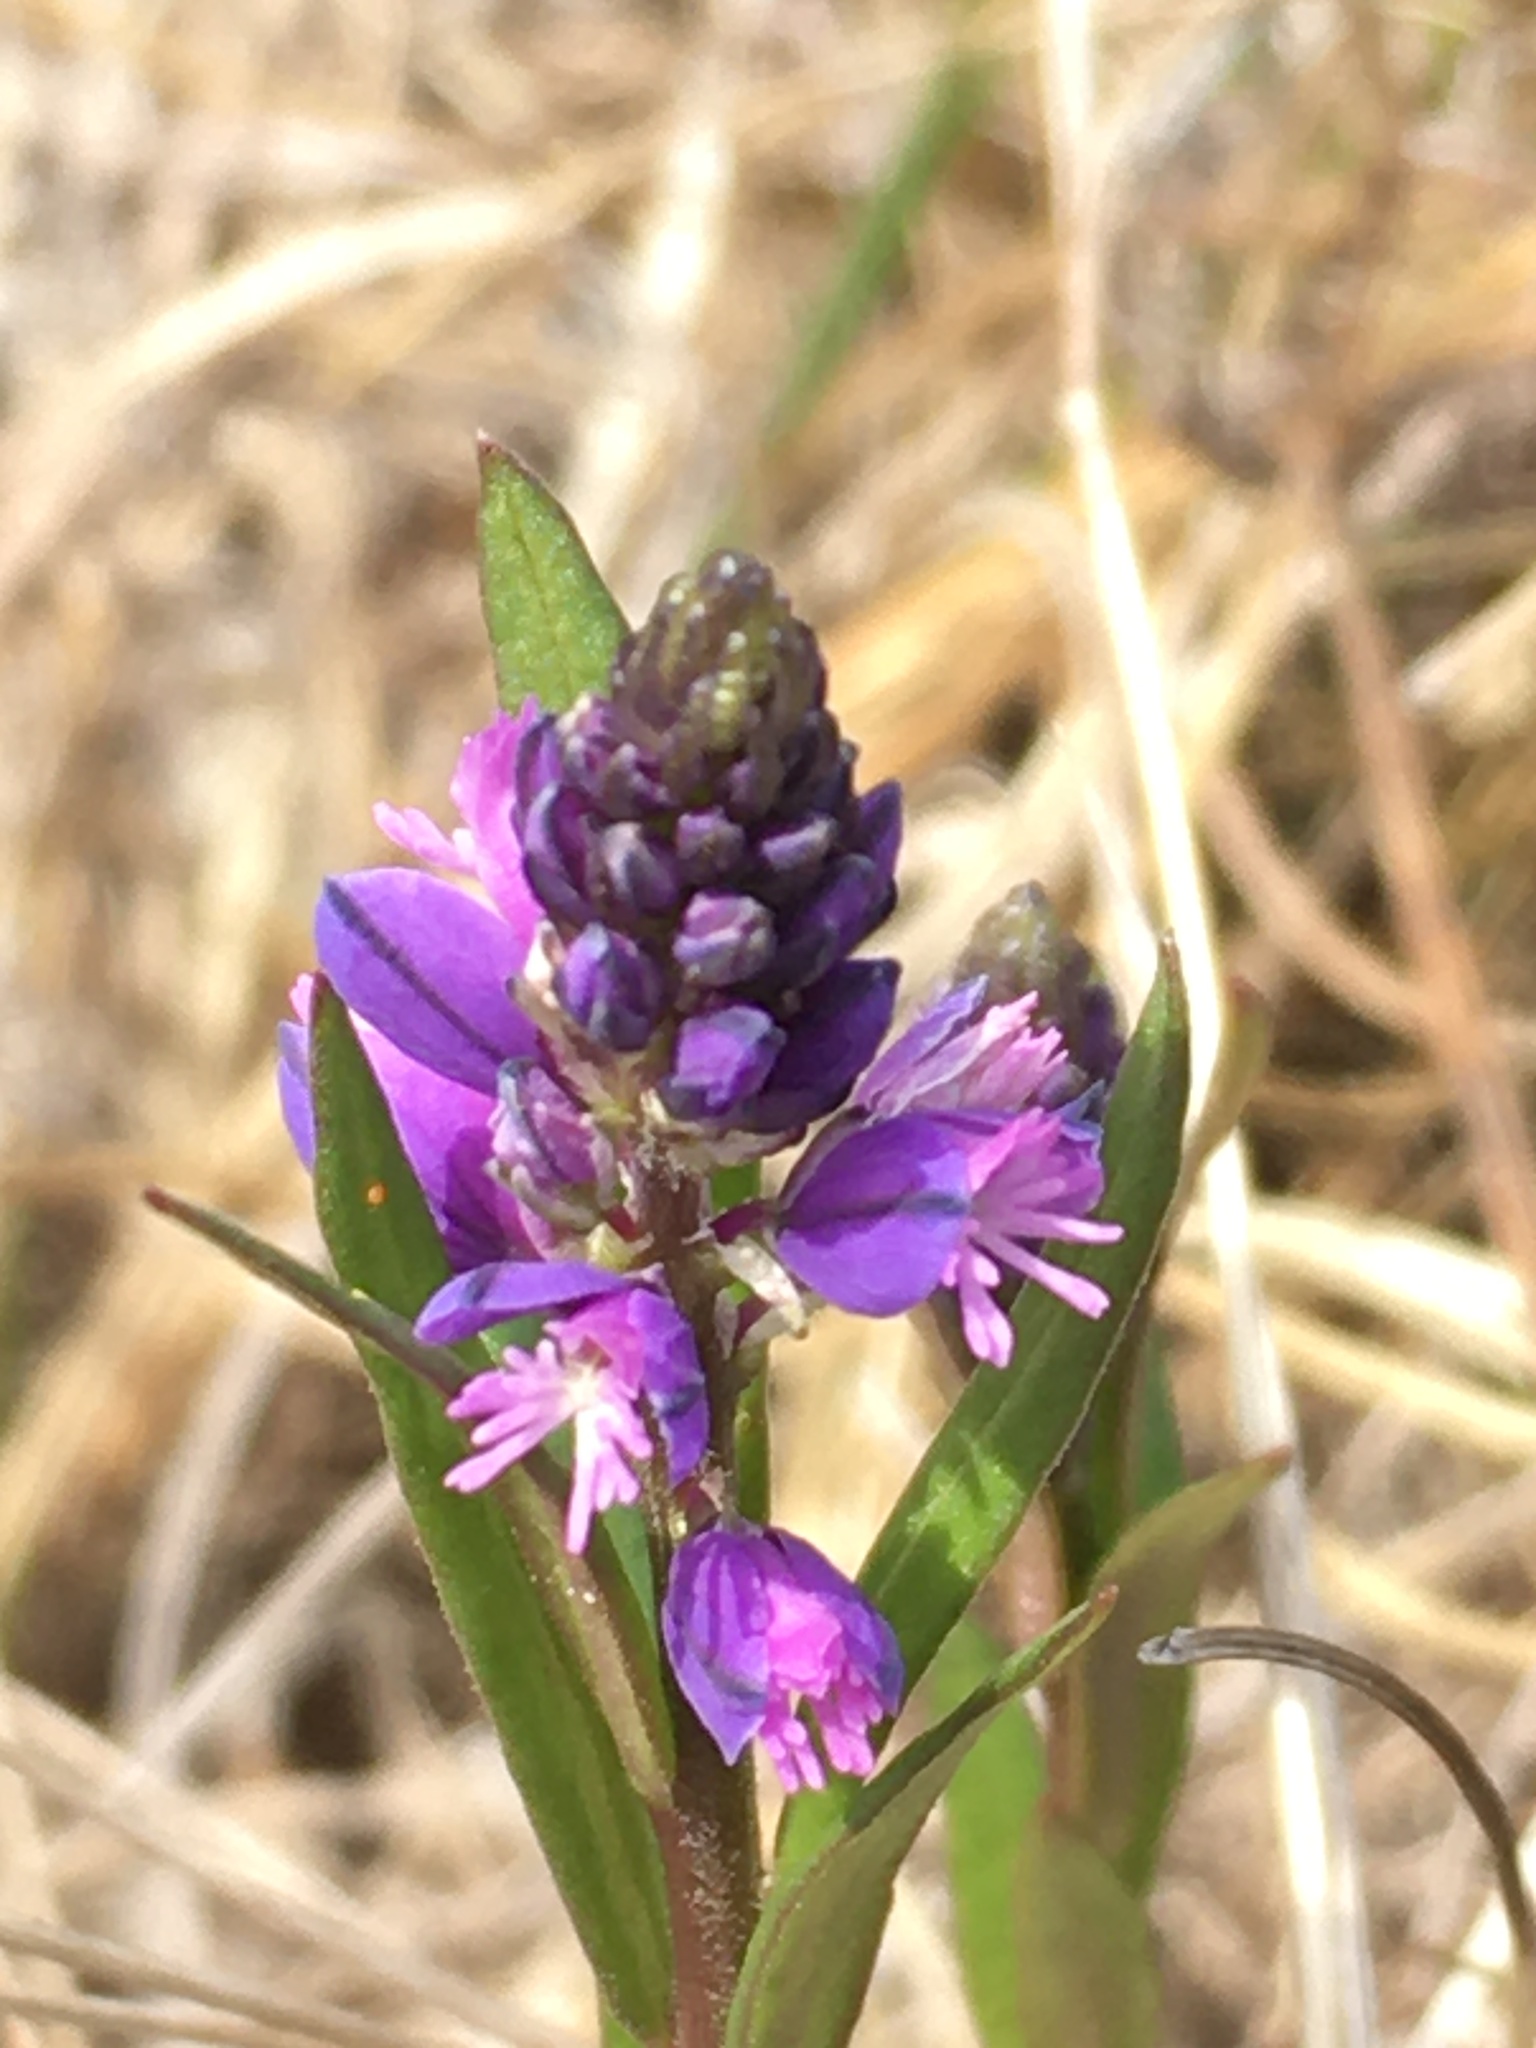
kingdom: Plantae
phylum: Tracheophyta
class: Magnoliopsida
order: Fabales
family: Polygalaceae
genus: Polygala
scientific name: Polygala vulgaris
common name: Common milkwort
